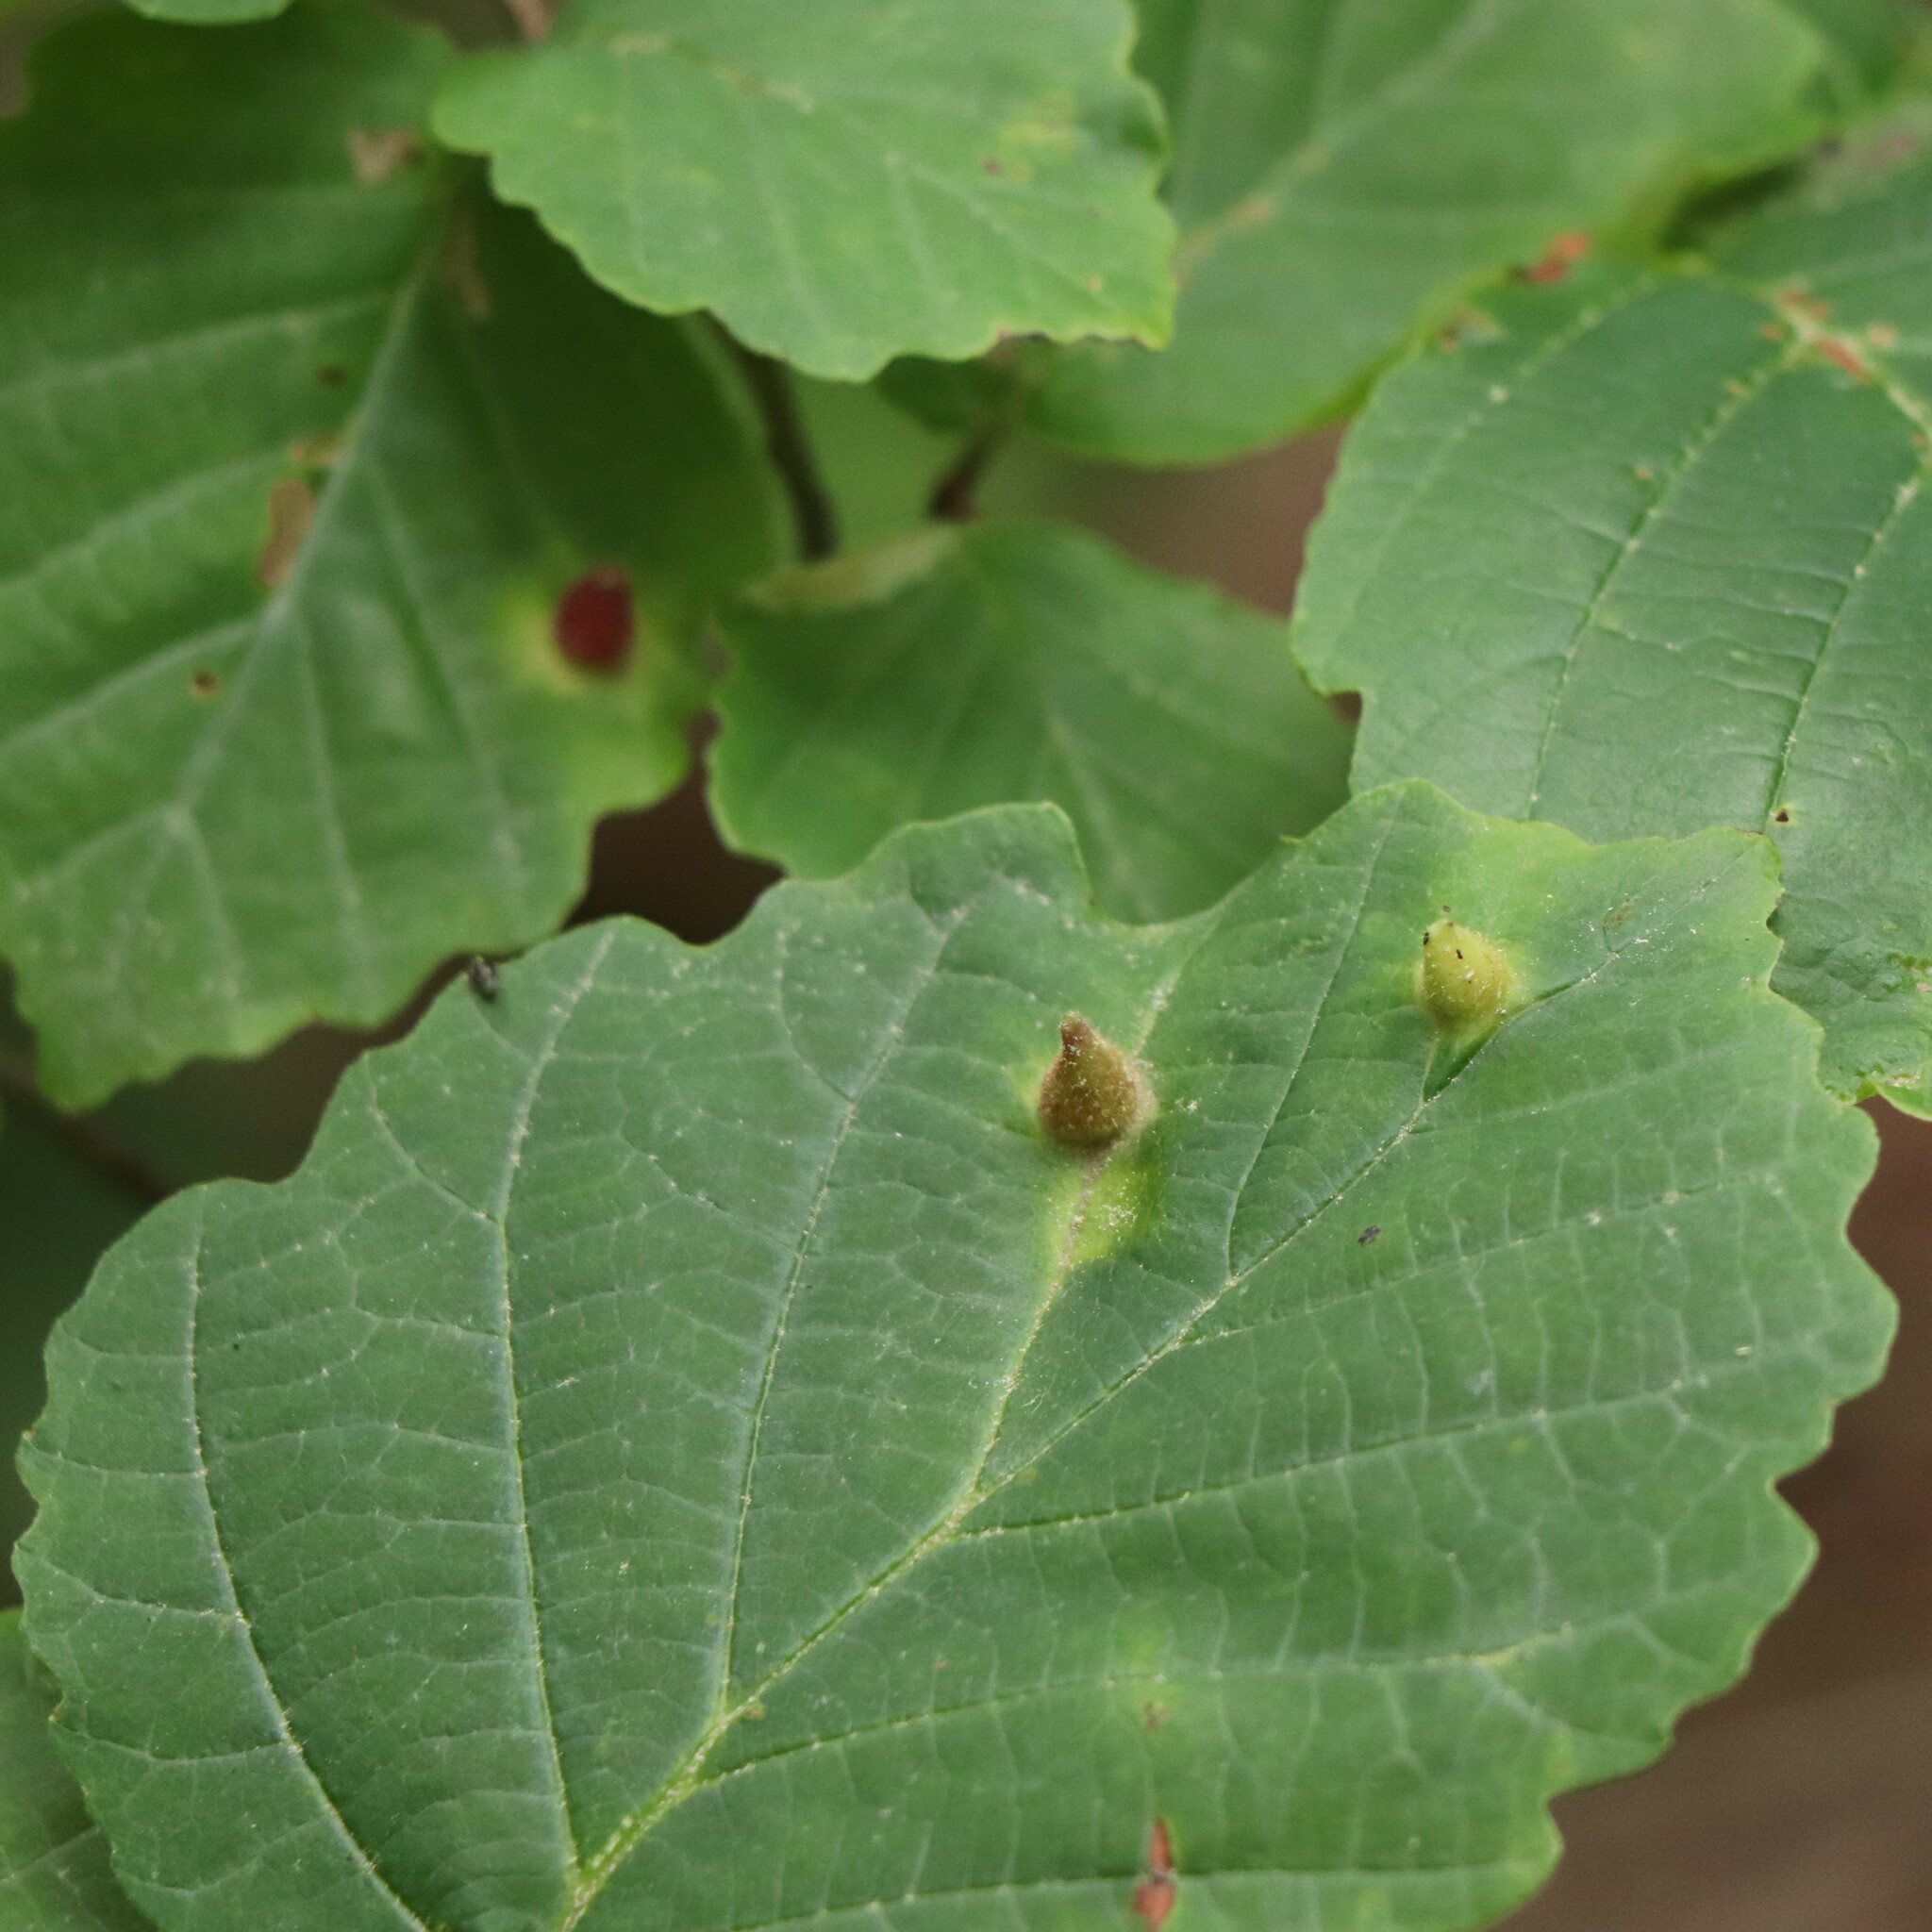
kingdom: Animalia
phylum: Arthropoda
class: Insecta
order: Hemiptera
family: Aphididae
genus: Hormaphis
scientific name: Hormaphis hamamelidis
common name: Witch-hazel cone gall aphid
